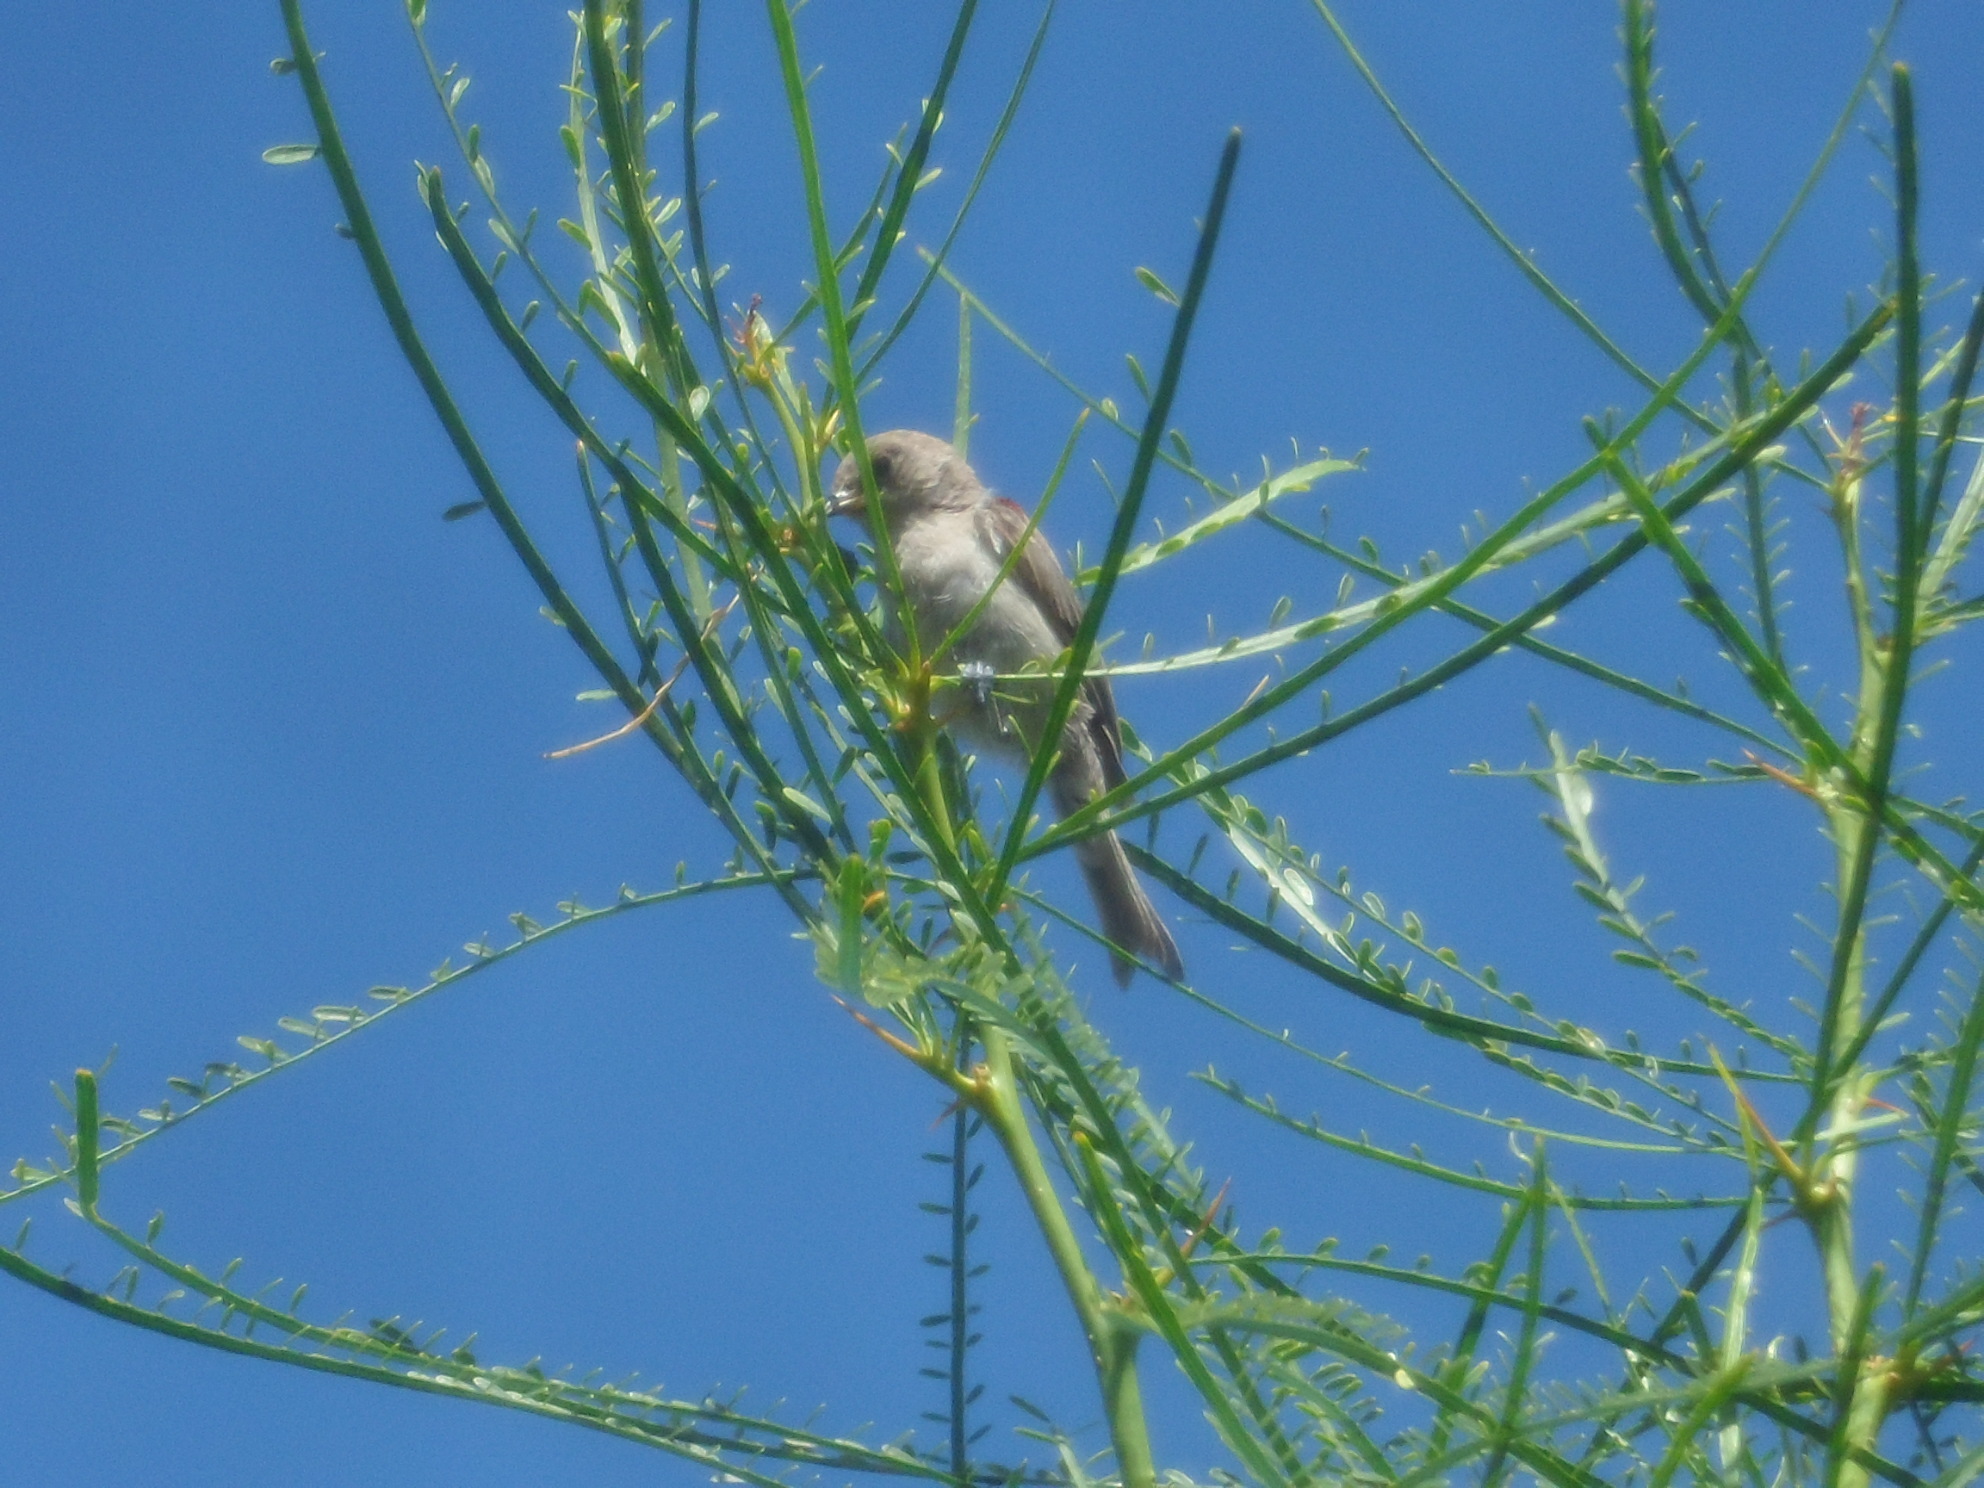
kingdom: Animalia
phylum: Chordata
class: Aves
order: Passeriformes
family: Remizidae
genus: Auriparus
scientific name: Auriparus flaviceps
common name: Verdin
